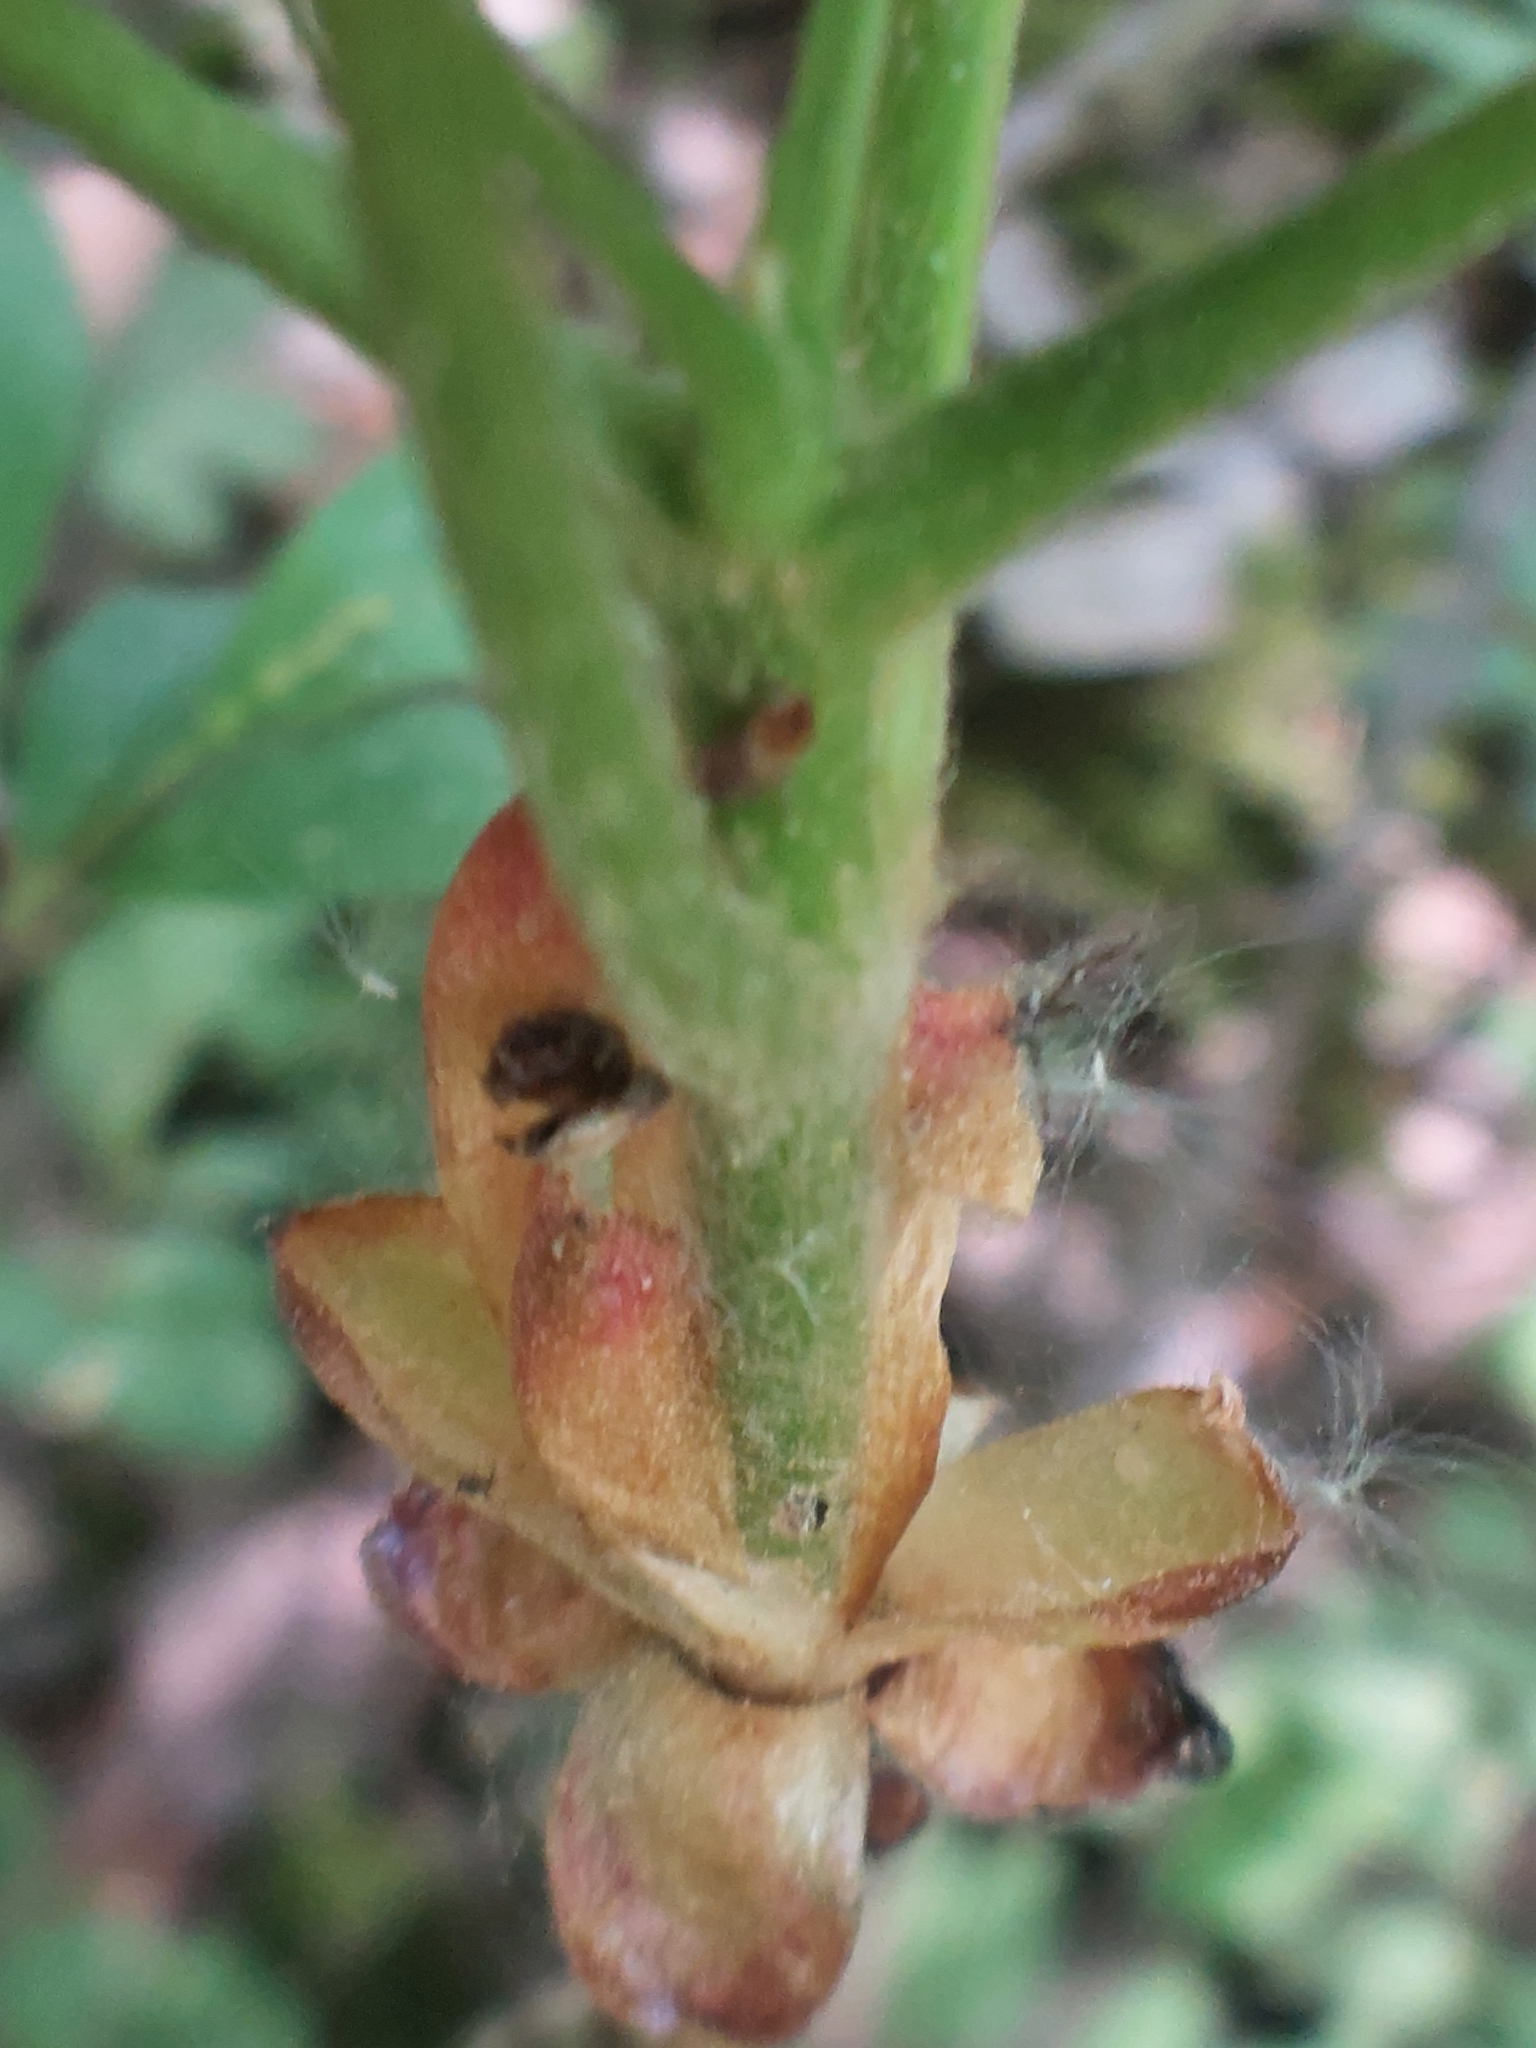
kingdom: Plantae
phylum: Tracheophyta
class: Magnoliopsida
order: Sapindales
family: Sapindaceae
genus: Aesculus
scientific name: Aesculus hippocastanum
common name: Horse-chestnut
